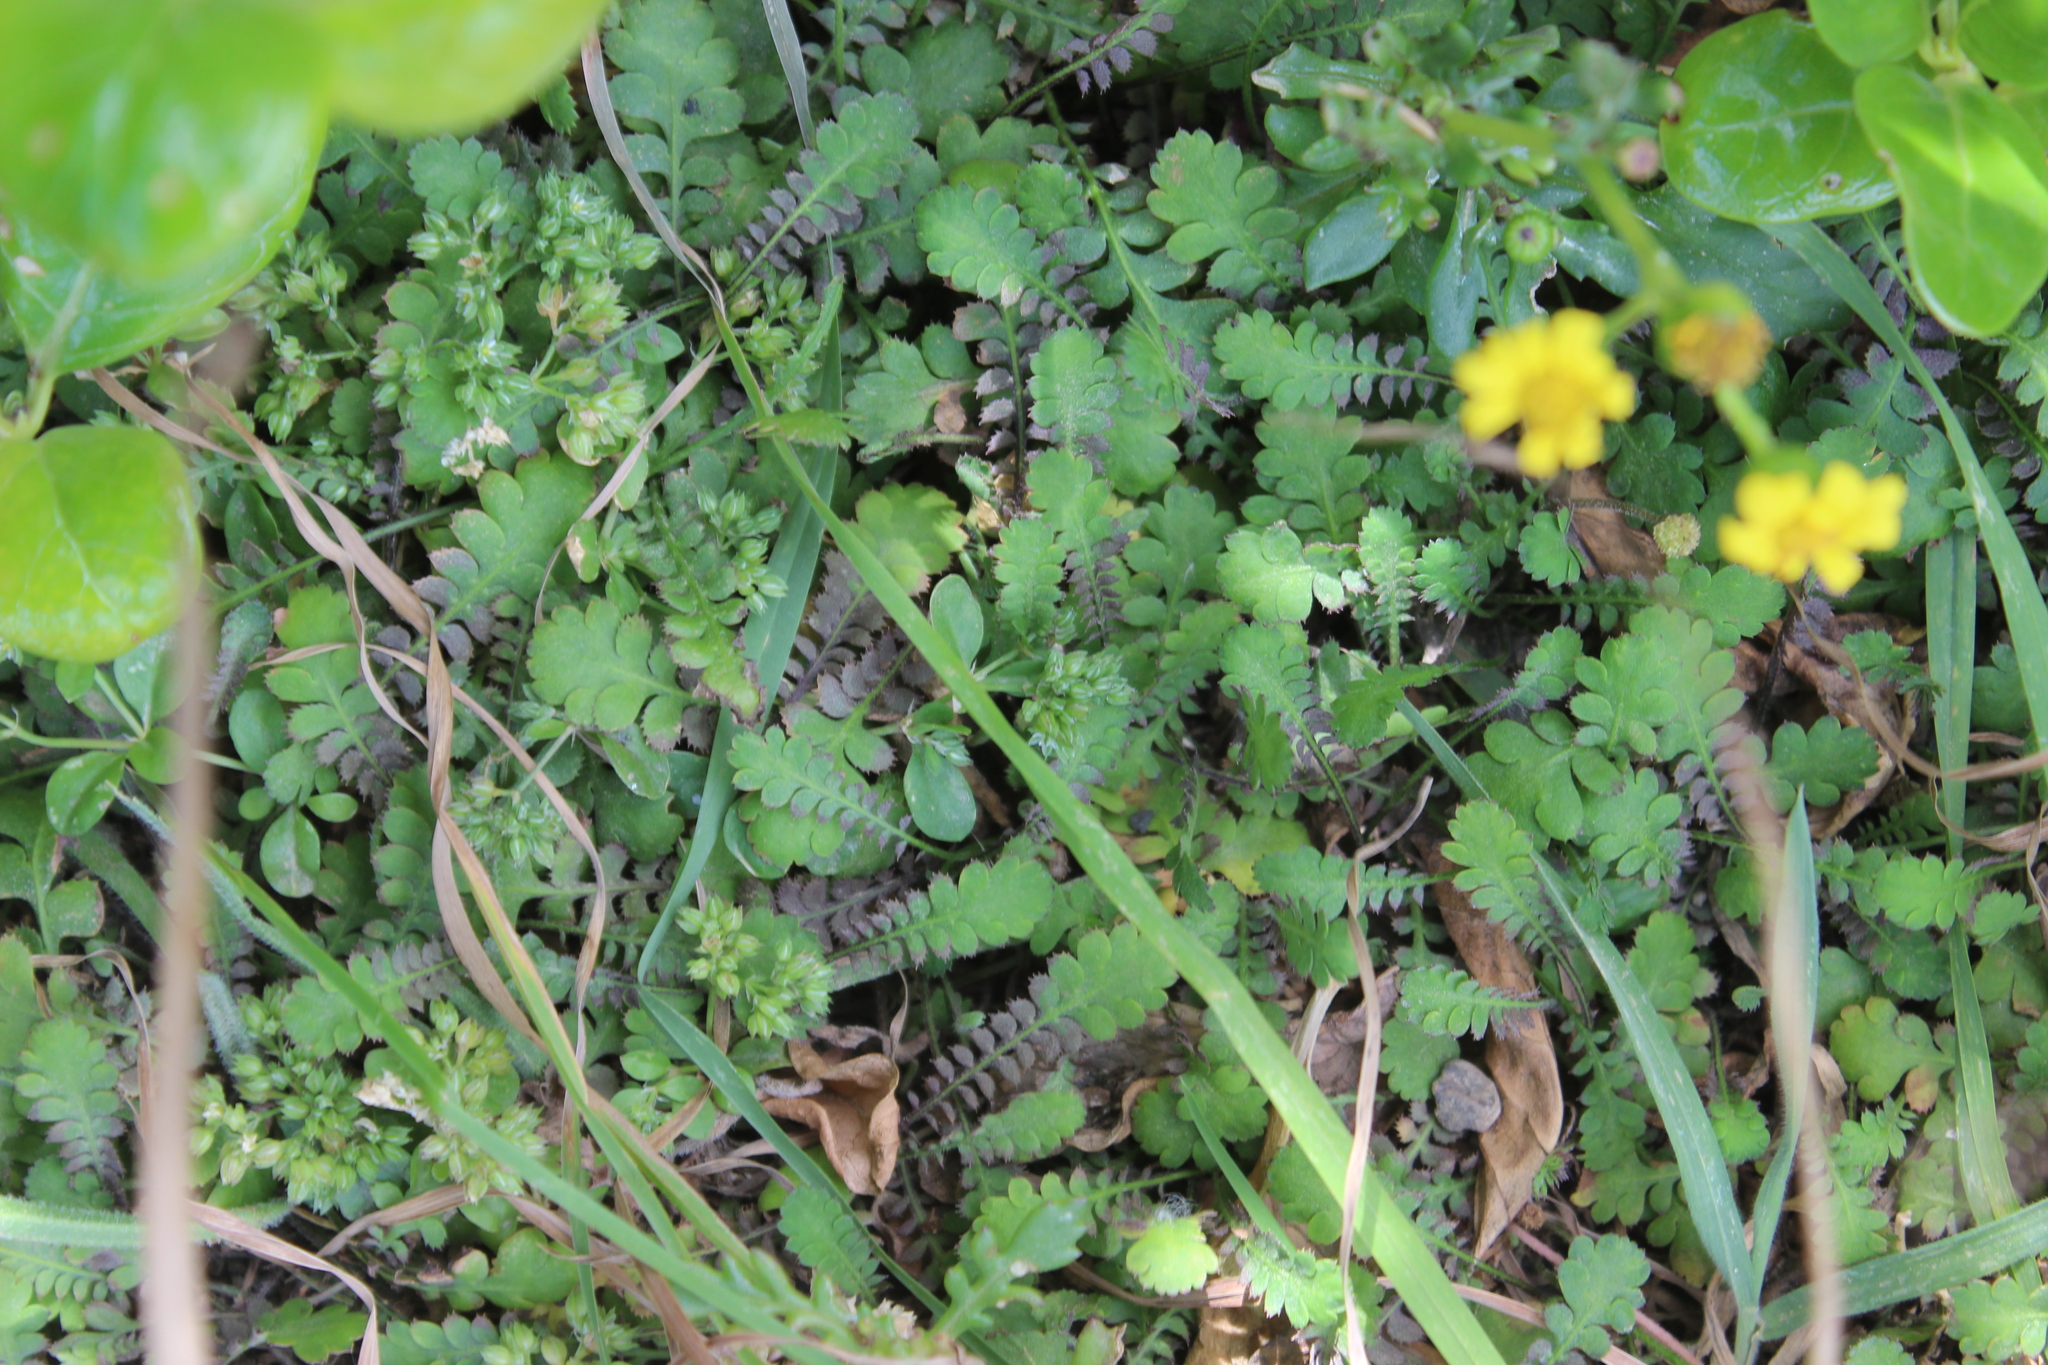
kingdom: Plantae
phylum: Tracheophyta
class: Magnoliopsida
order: Asterales
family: Asteraceae
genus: Leptinella
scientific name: Leptinella squalida
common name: New zealand brass-buttons
